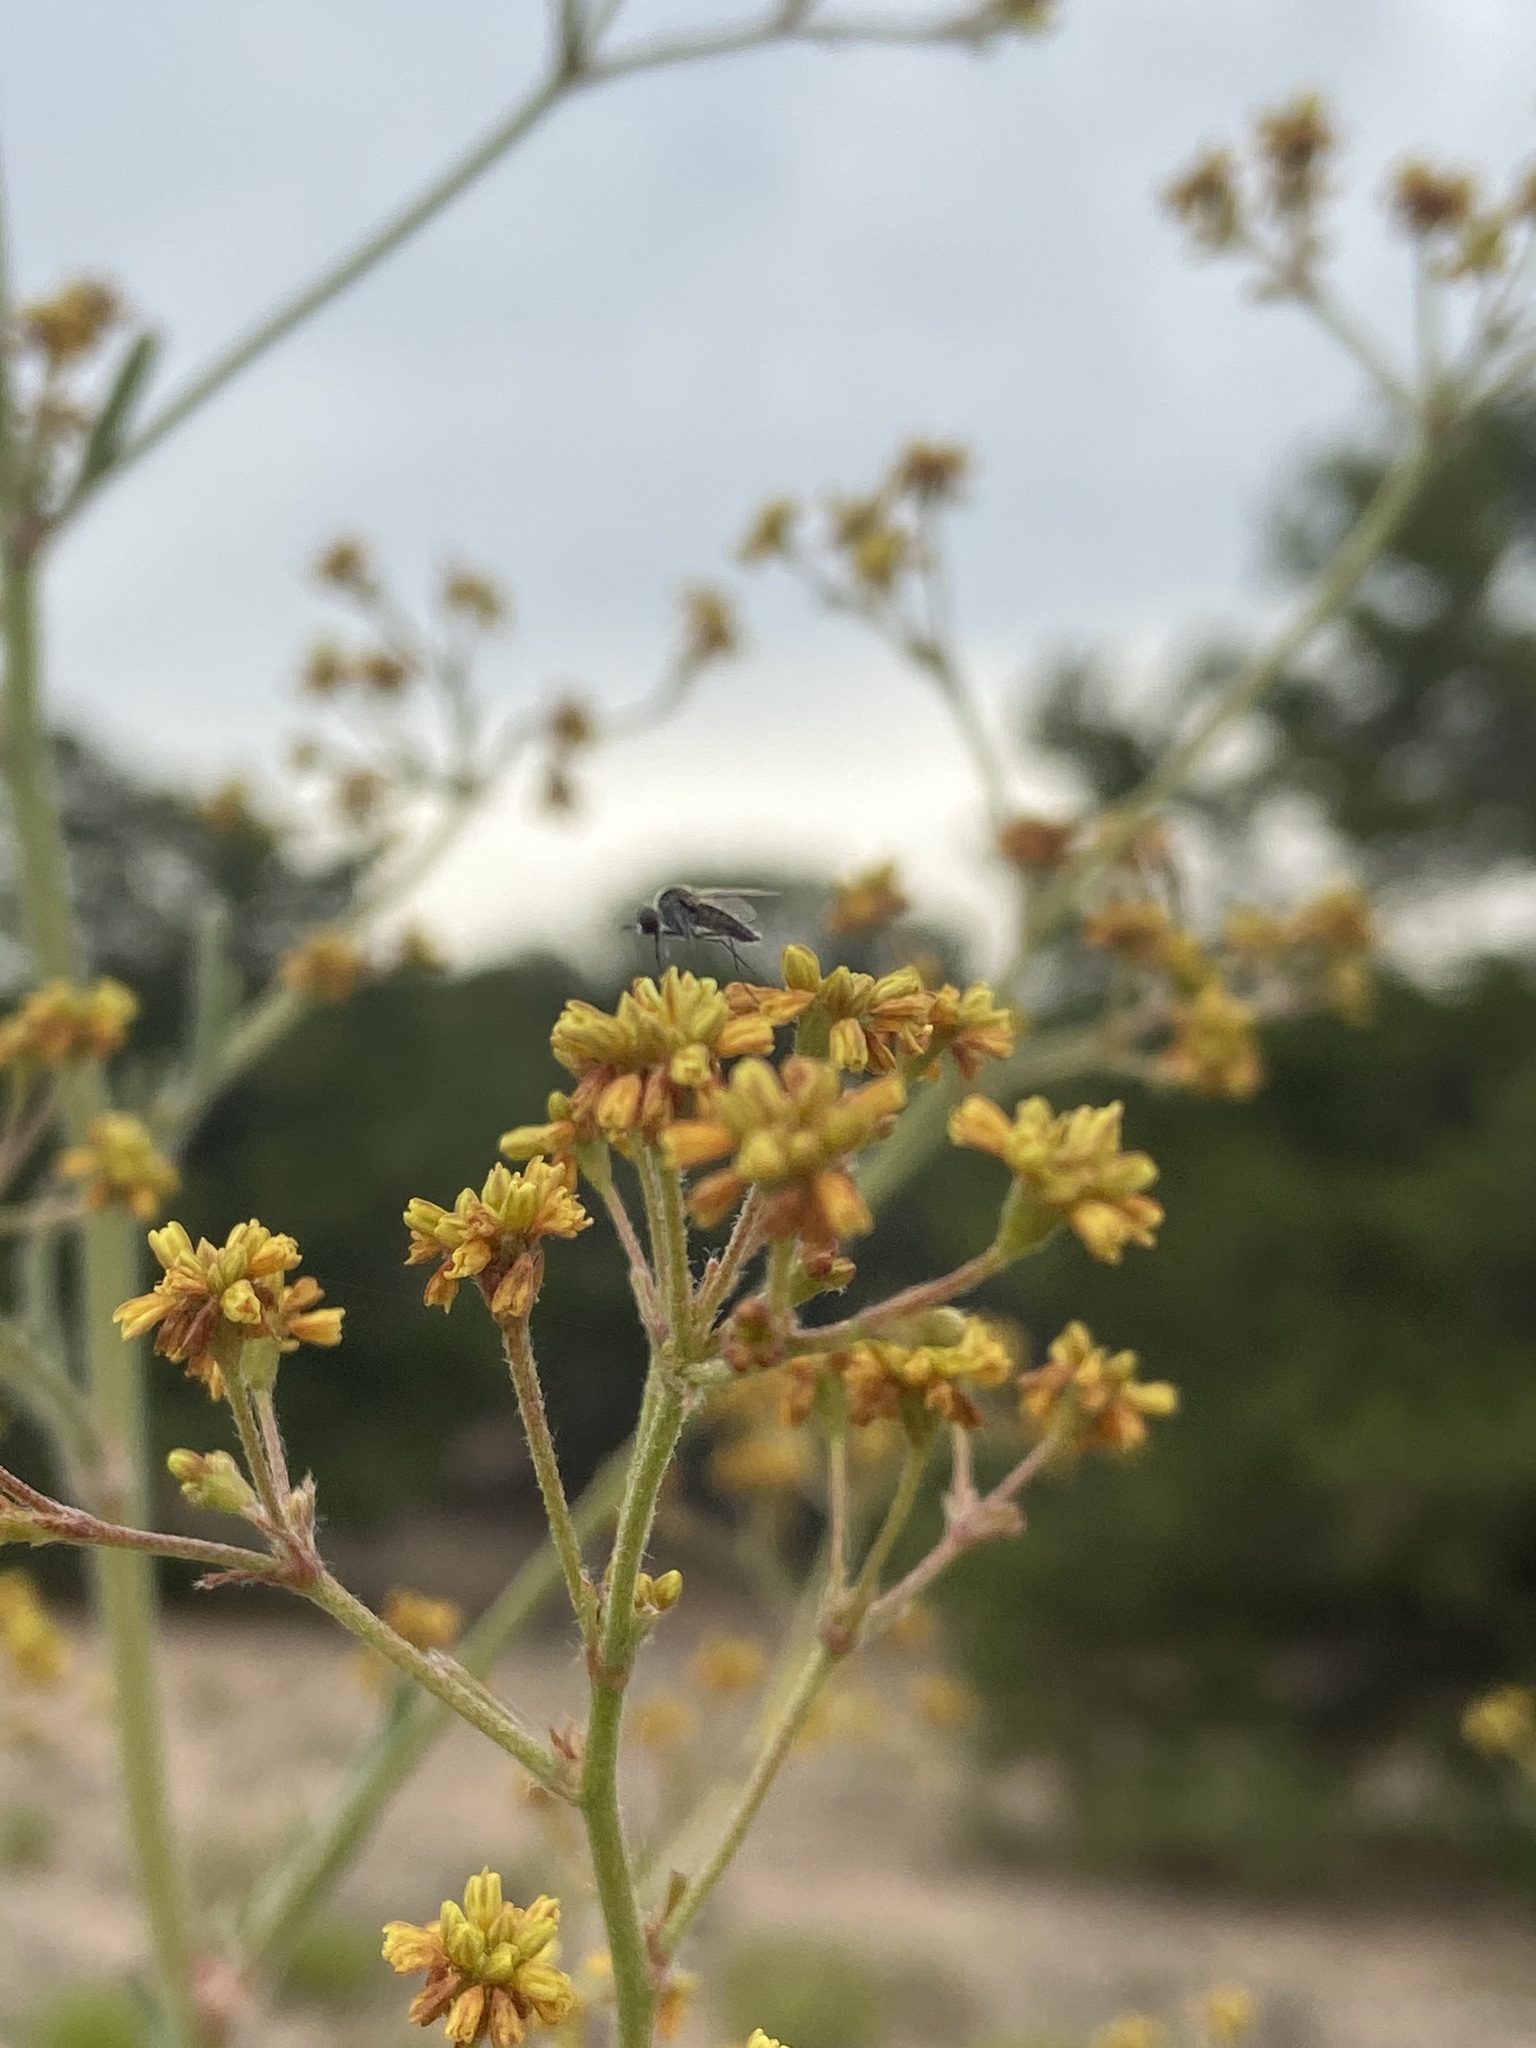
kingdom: Plantae
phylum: Tracheophyta
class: Magnoliopsida
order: Caryophyllales
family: Polygonaceae
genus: Eriogonum
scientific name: Eriogonum alatum
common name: Winged eriogonum
